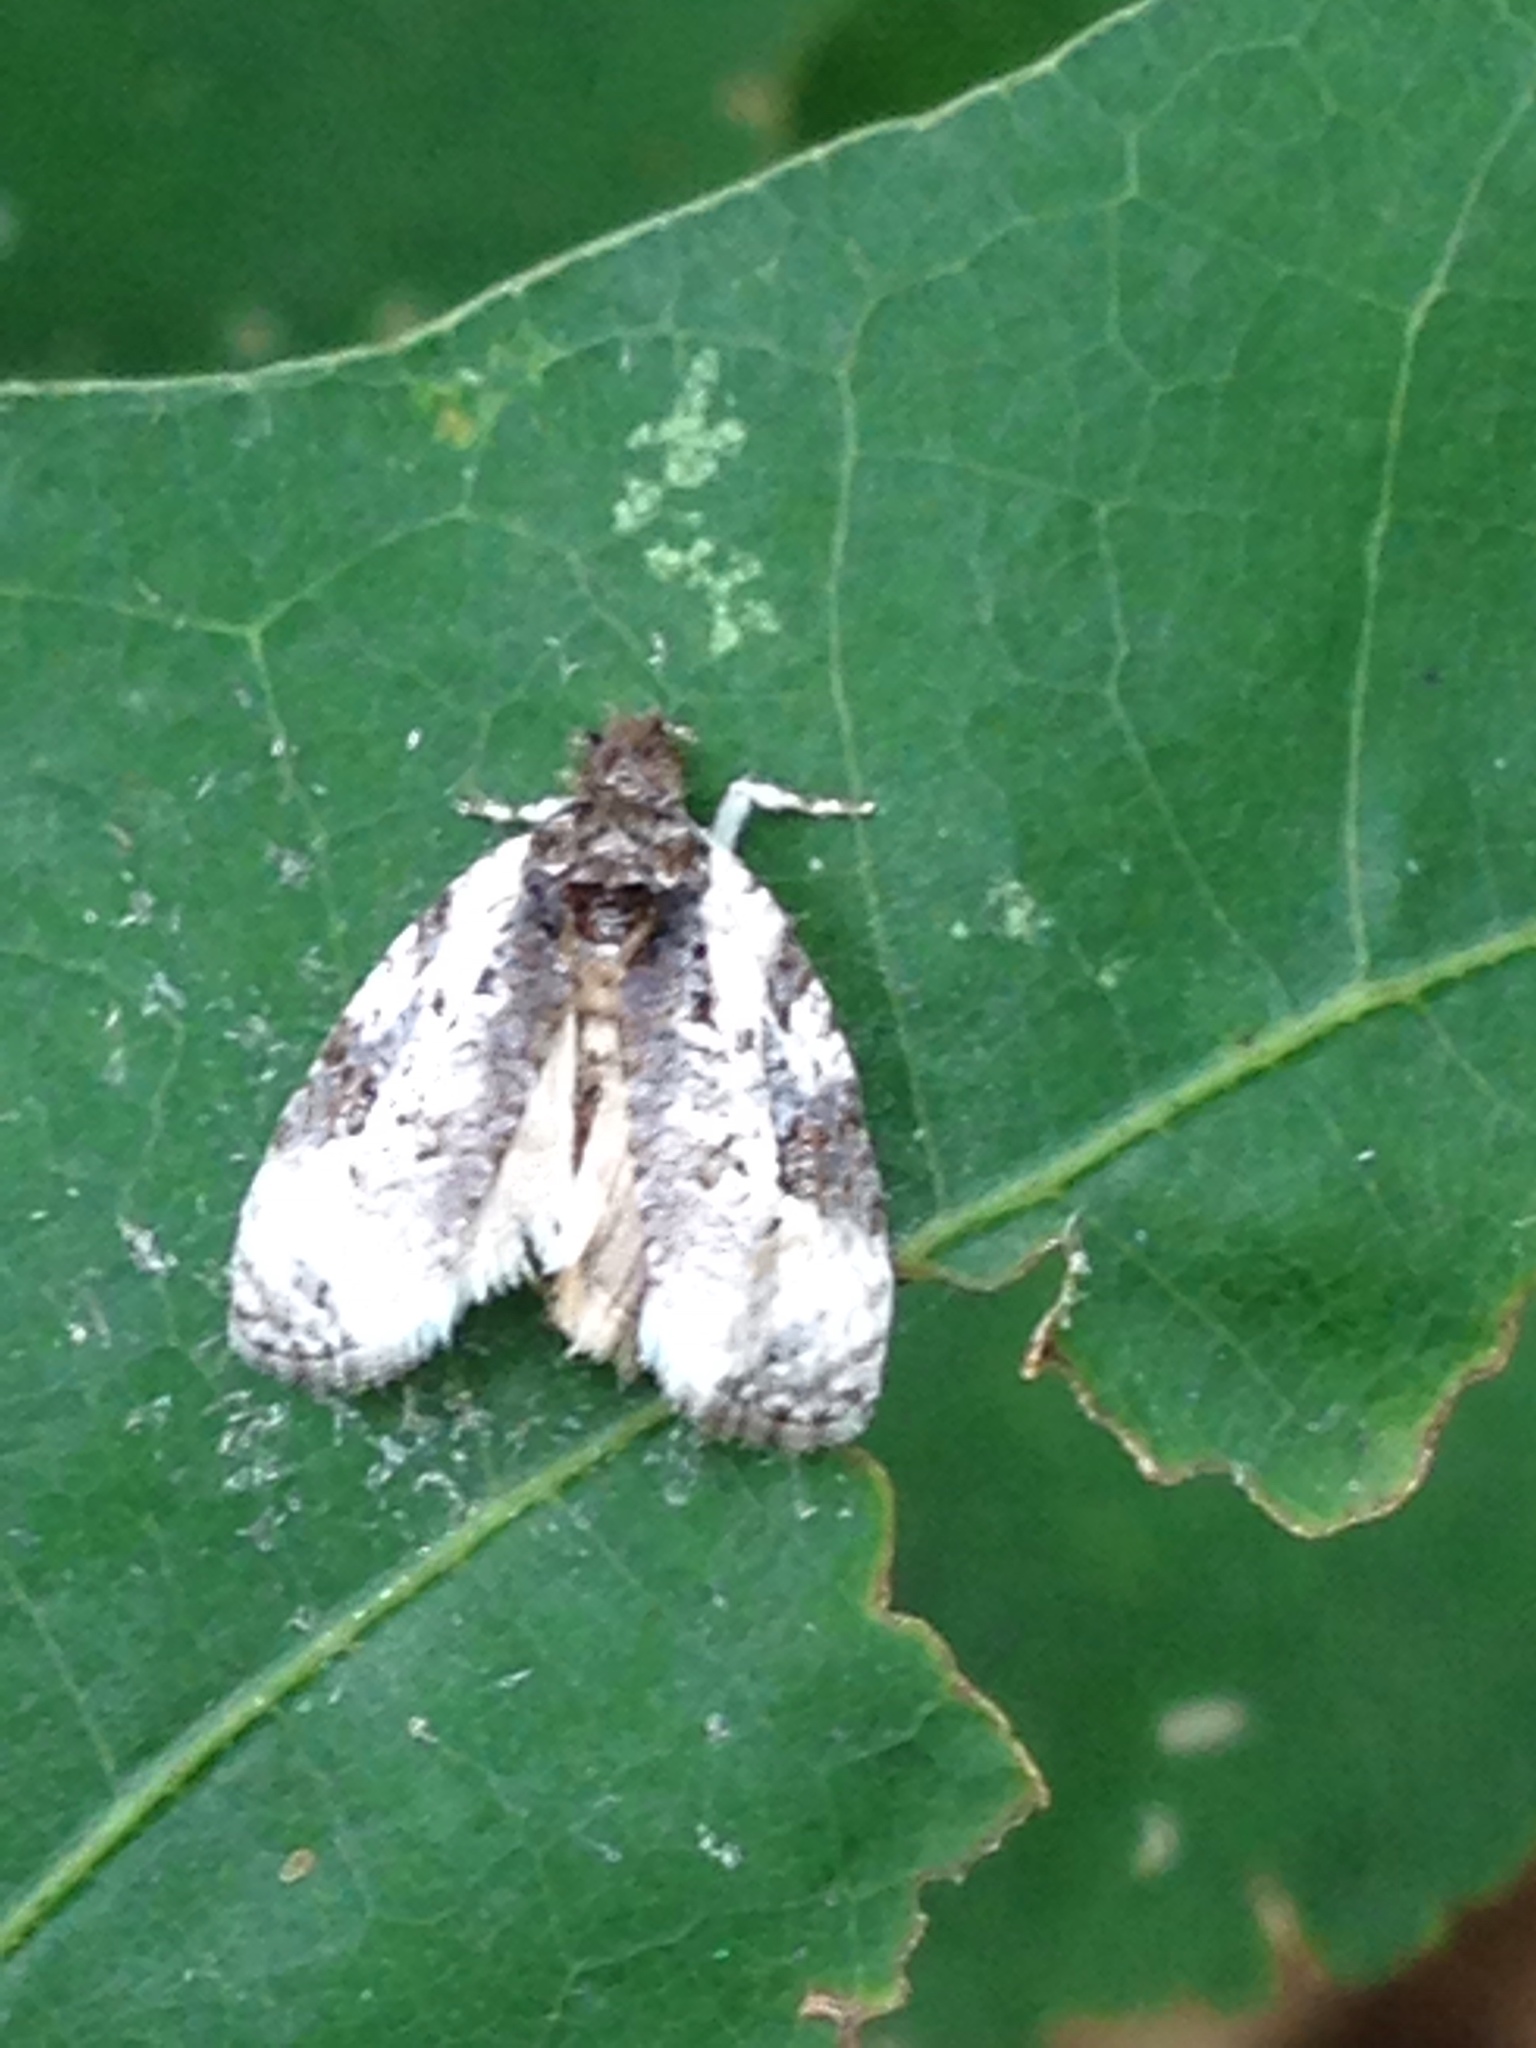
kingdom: Animalia
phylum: Arthropoda
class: Insecta
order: Lepidoptera
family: Tortricidae
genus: Apotomis
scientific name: Apotomis albeolana
